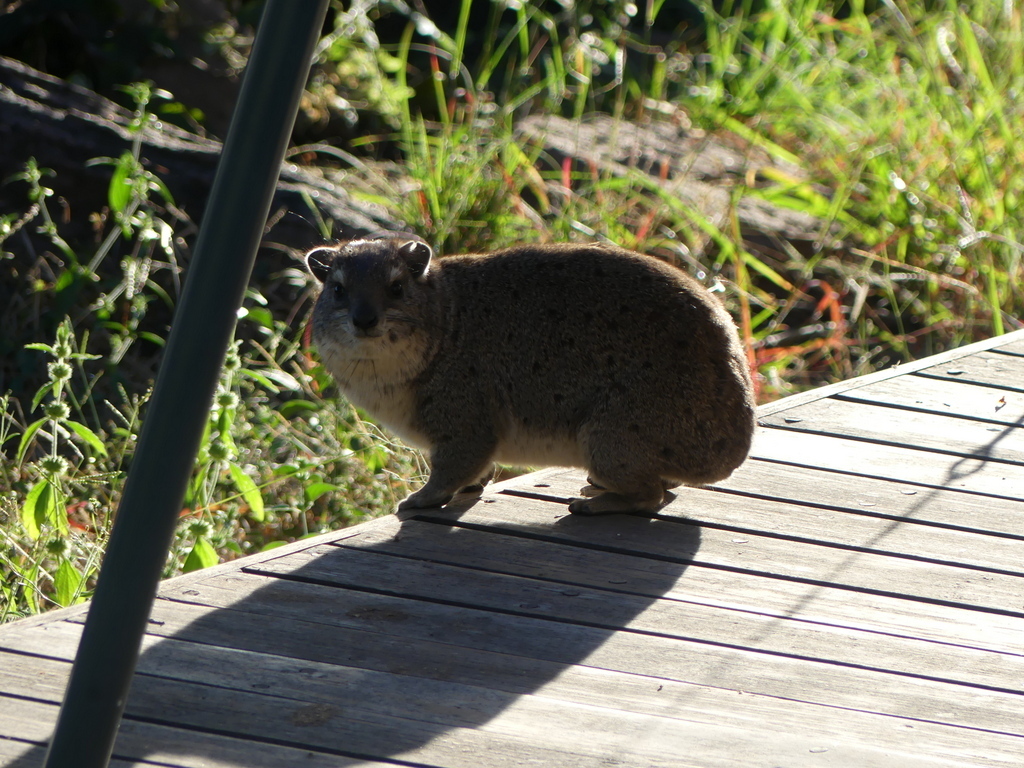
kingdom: Animalia
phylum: Chordata
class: Mammalia
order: Hyracoidea
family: Procaviidae
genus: Heterohyrax
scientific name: Heterohyrax brucei
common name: Bush hyrax
